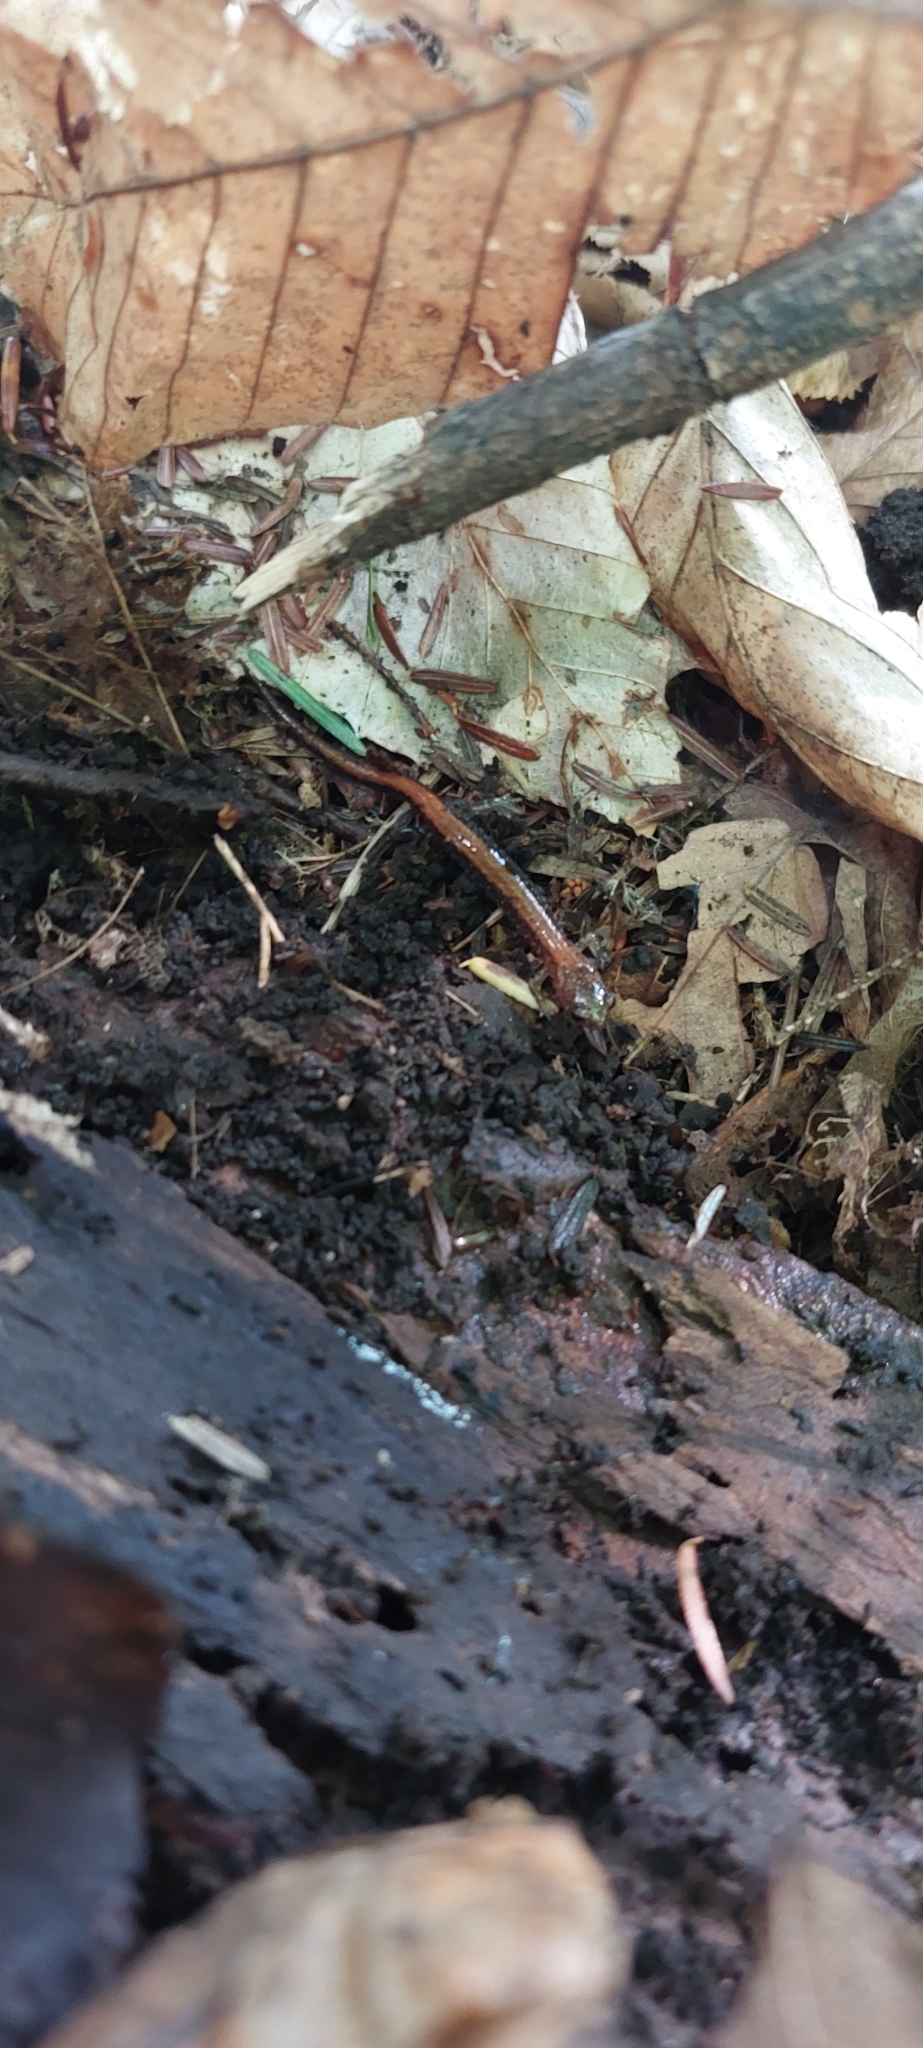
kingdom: Animalia
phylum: Chordata
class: Amphibia
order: Caudata
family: Plethodontidae
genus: Plethodon
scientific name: Plethodon cinereus
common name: Redback salamander
